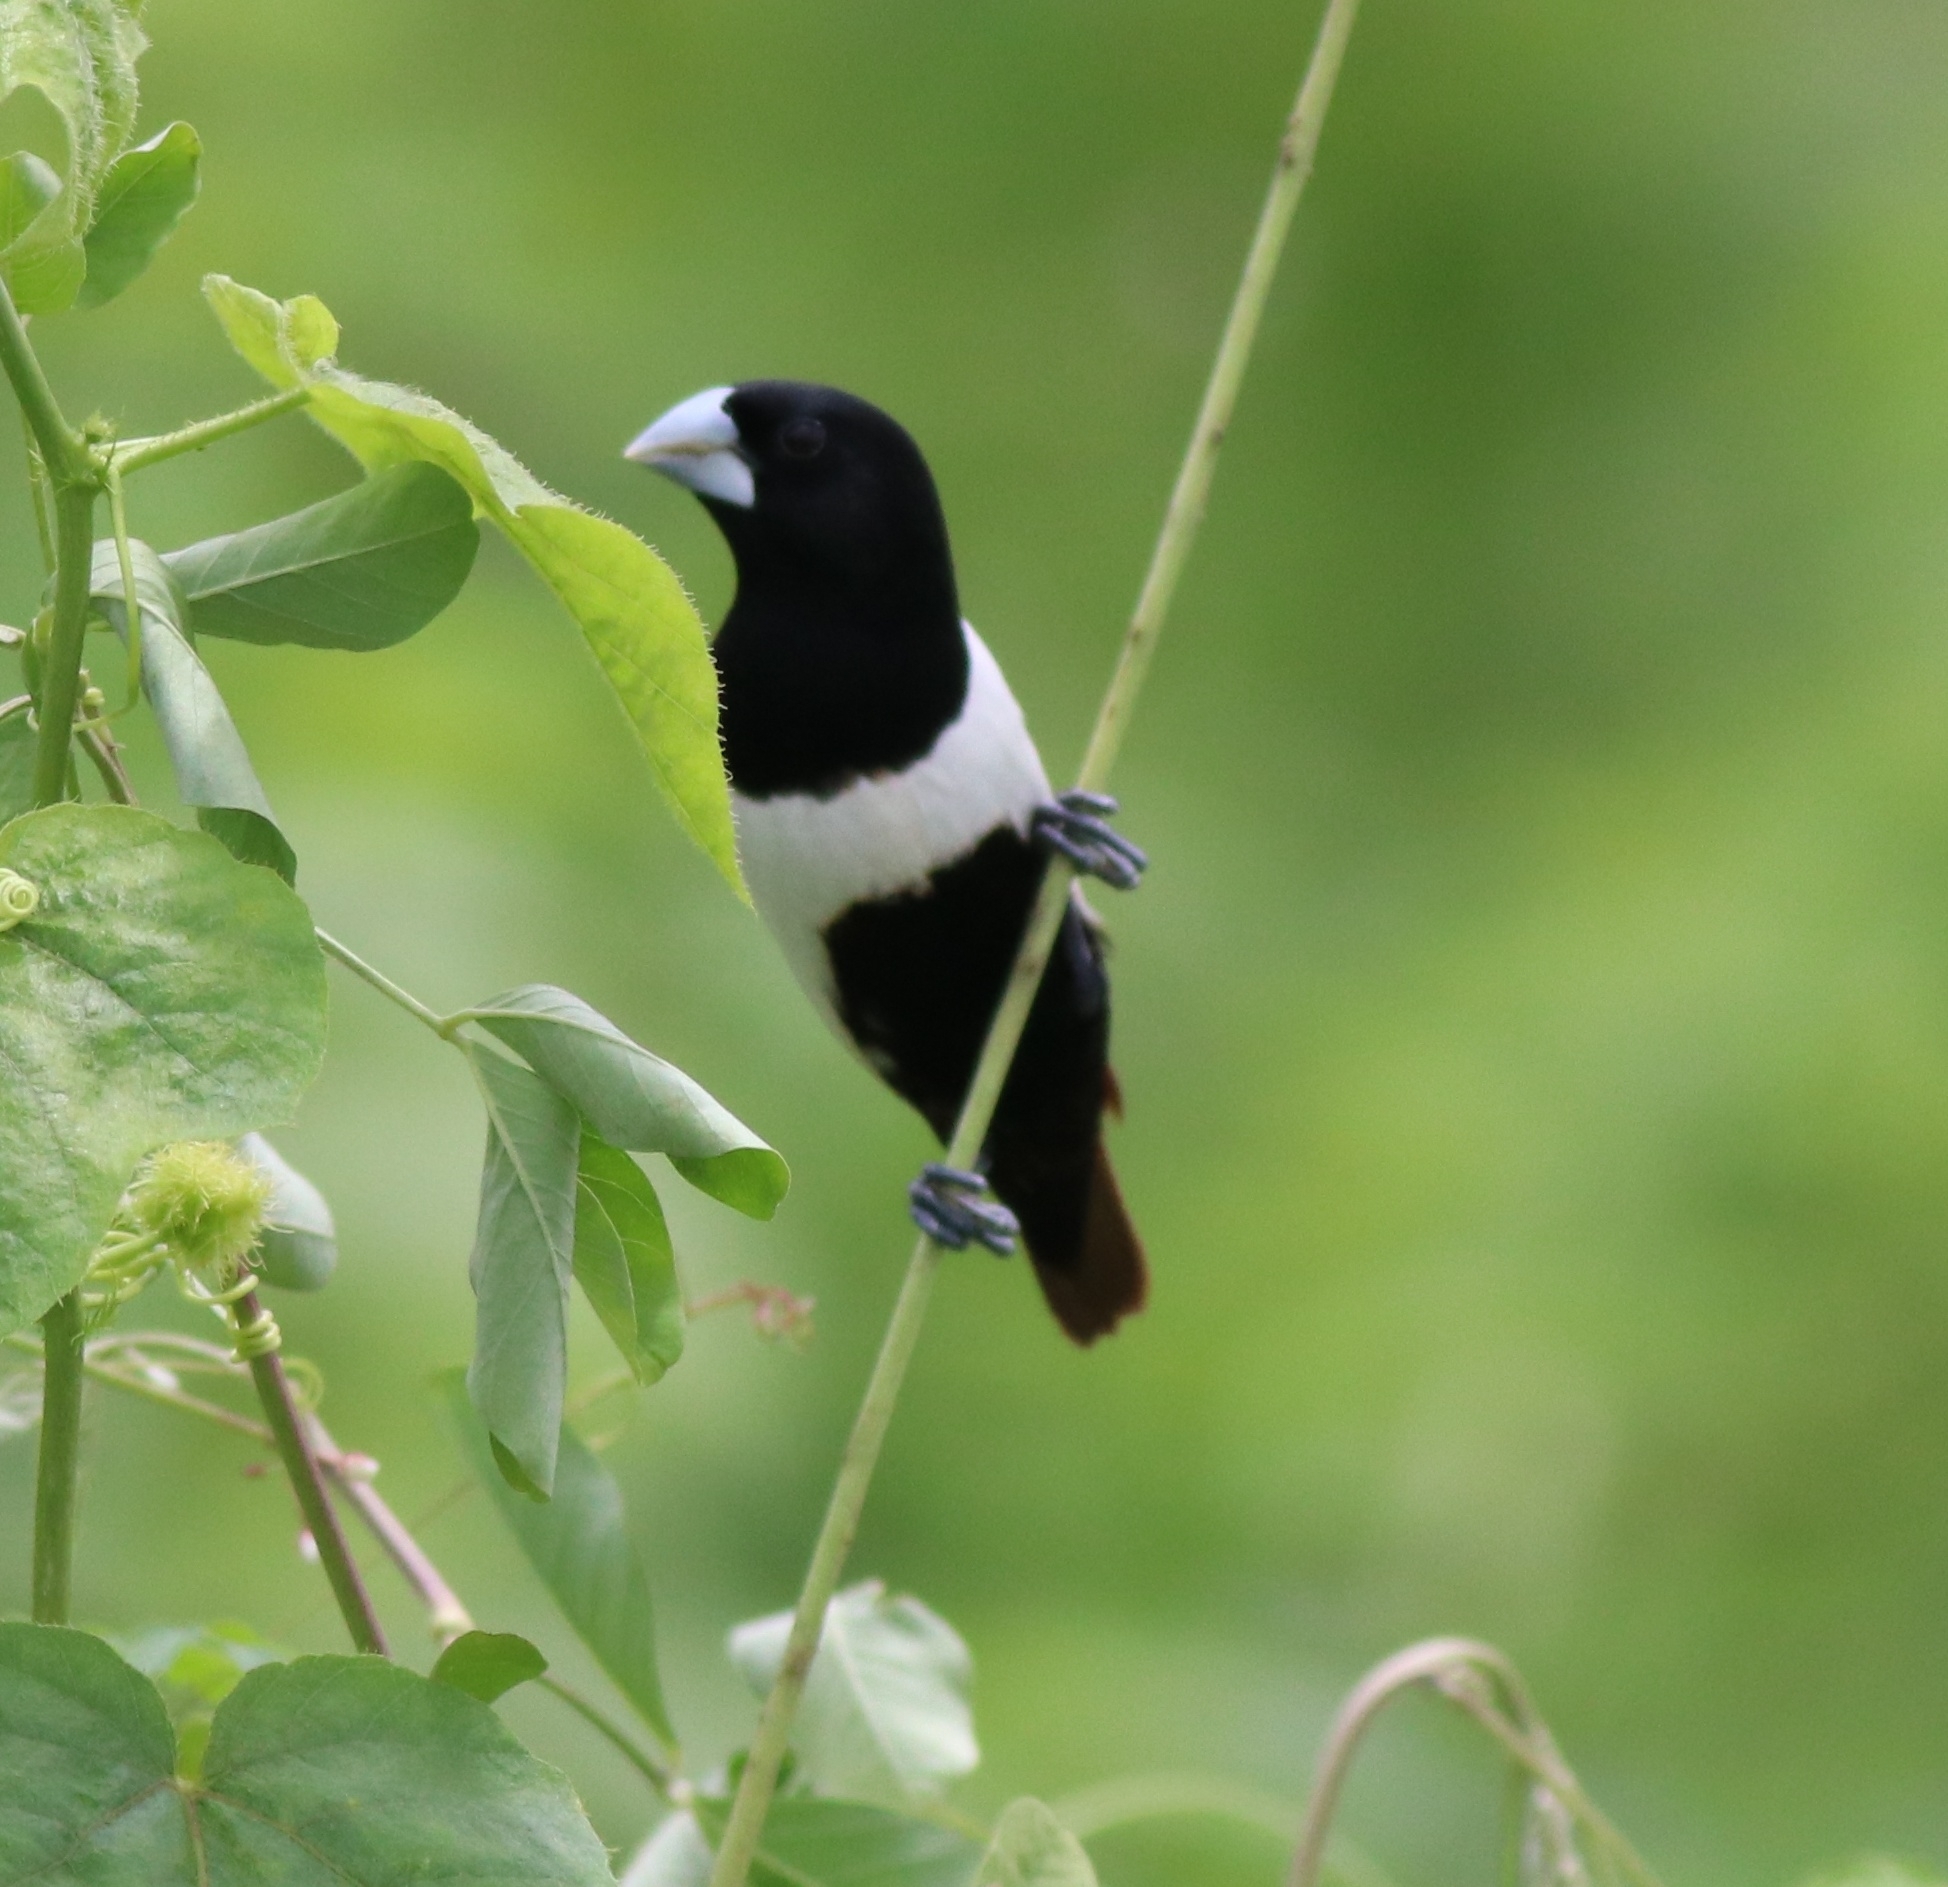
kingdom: Animalia
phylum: Chordata
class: Aves
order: Passeriformes
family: Estrildidae
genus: Lonchura
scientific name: Lonchura malacca
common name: Tricolored munia
